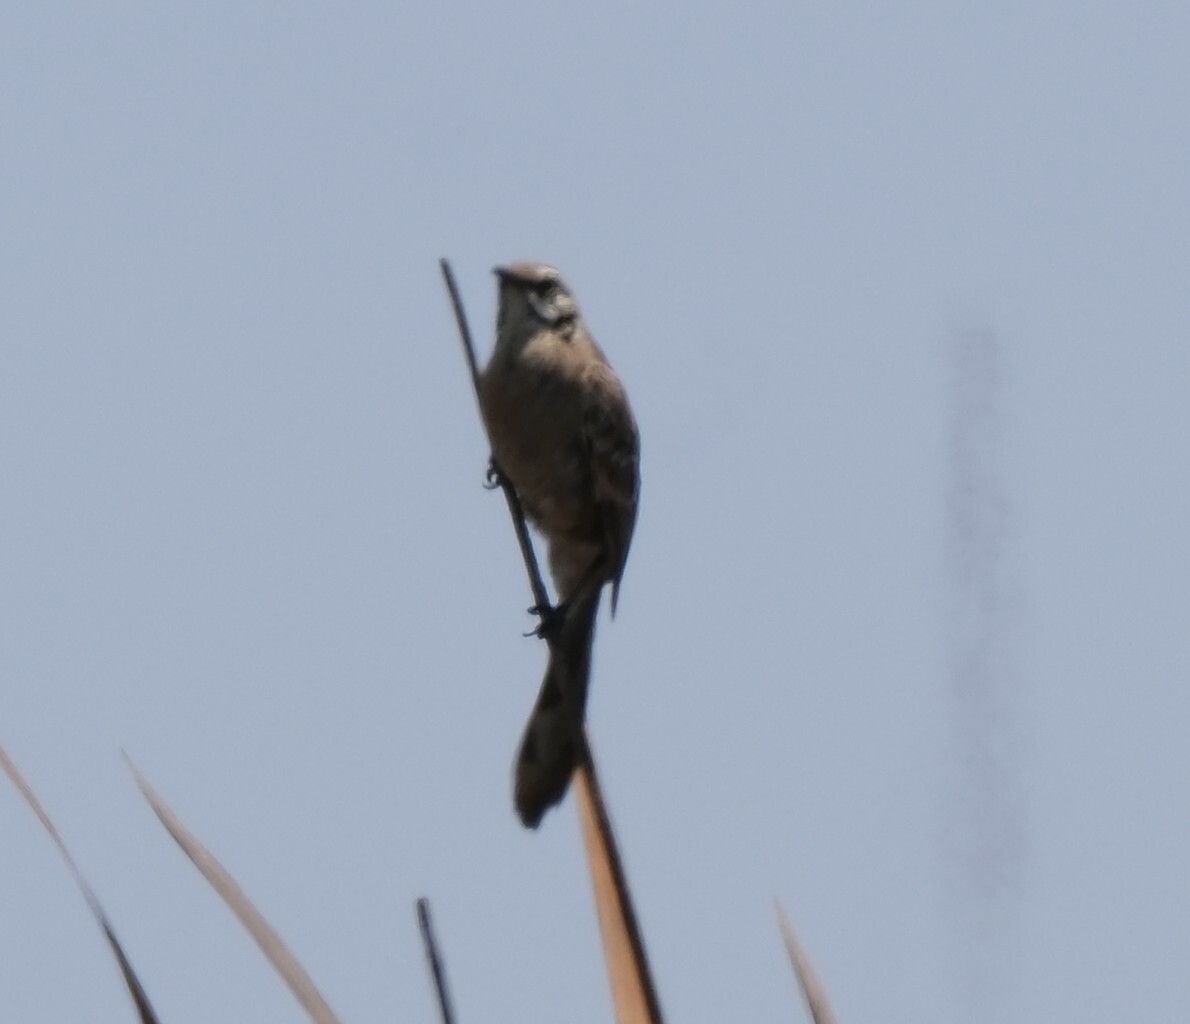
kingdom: Animalia
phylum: Chordata
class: Aves
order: Passeriformes
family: Mimidae
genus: Mimus
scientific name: Mimus longicaudatus
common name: Long-tailed mockingbird
